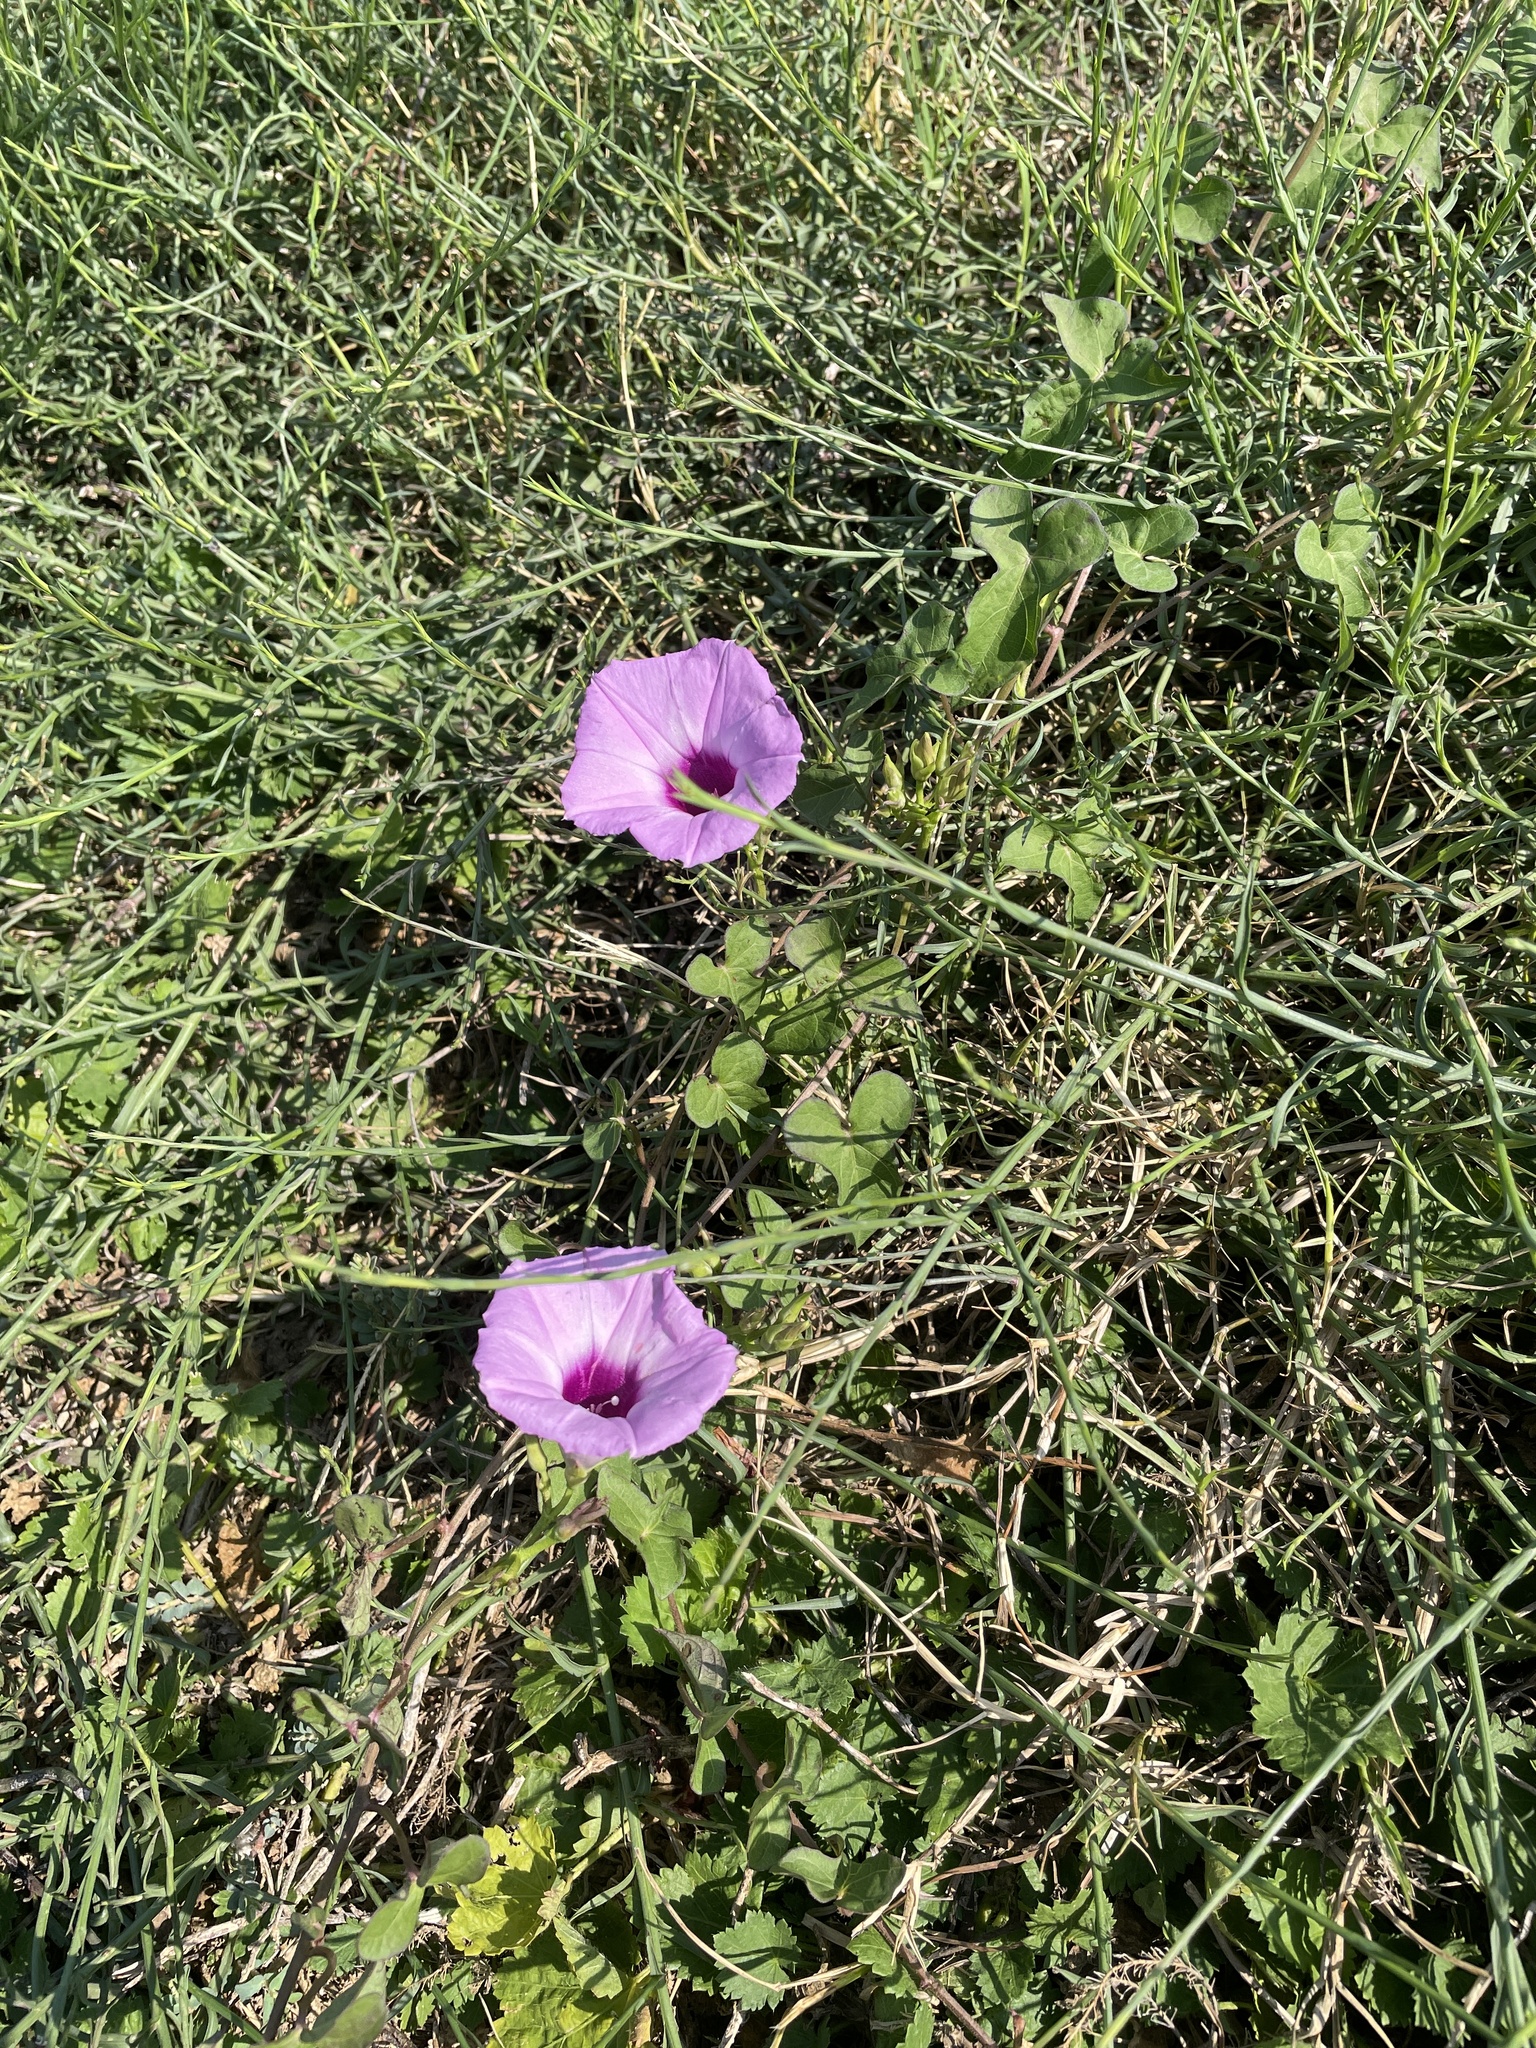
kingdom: Plantae
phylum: Tracheophyta
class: Magnoliopsida
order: Solanales
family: Convolvulaceae
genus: Ipomoea
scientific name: Ipomoea cordatotriloba
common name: Cotton morning glory
